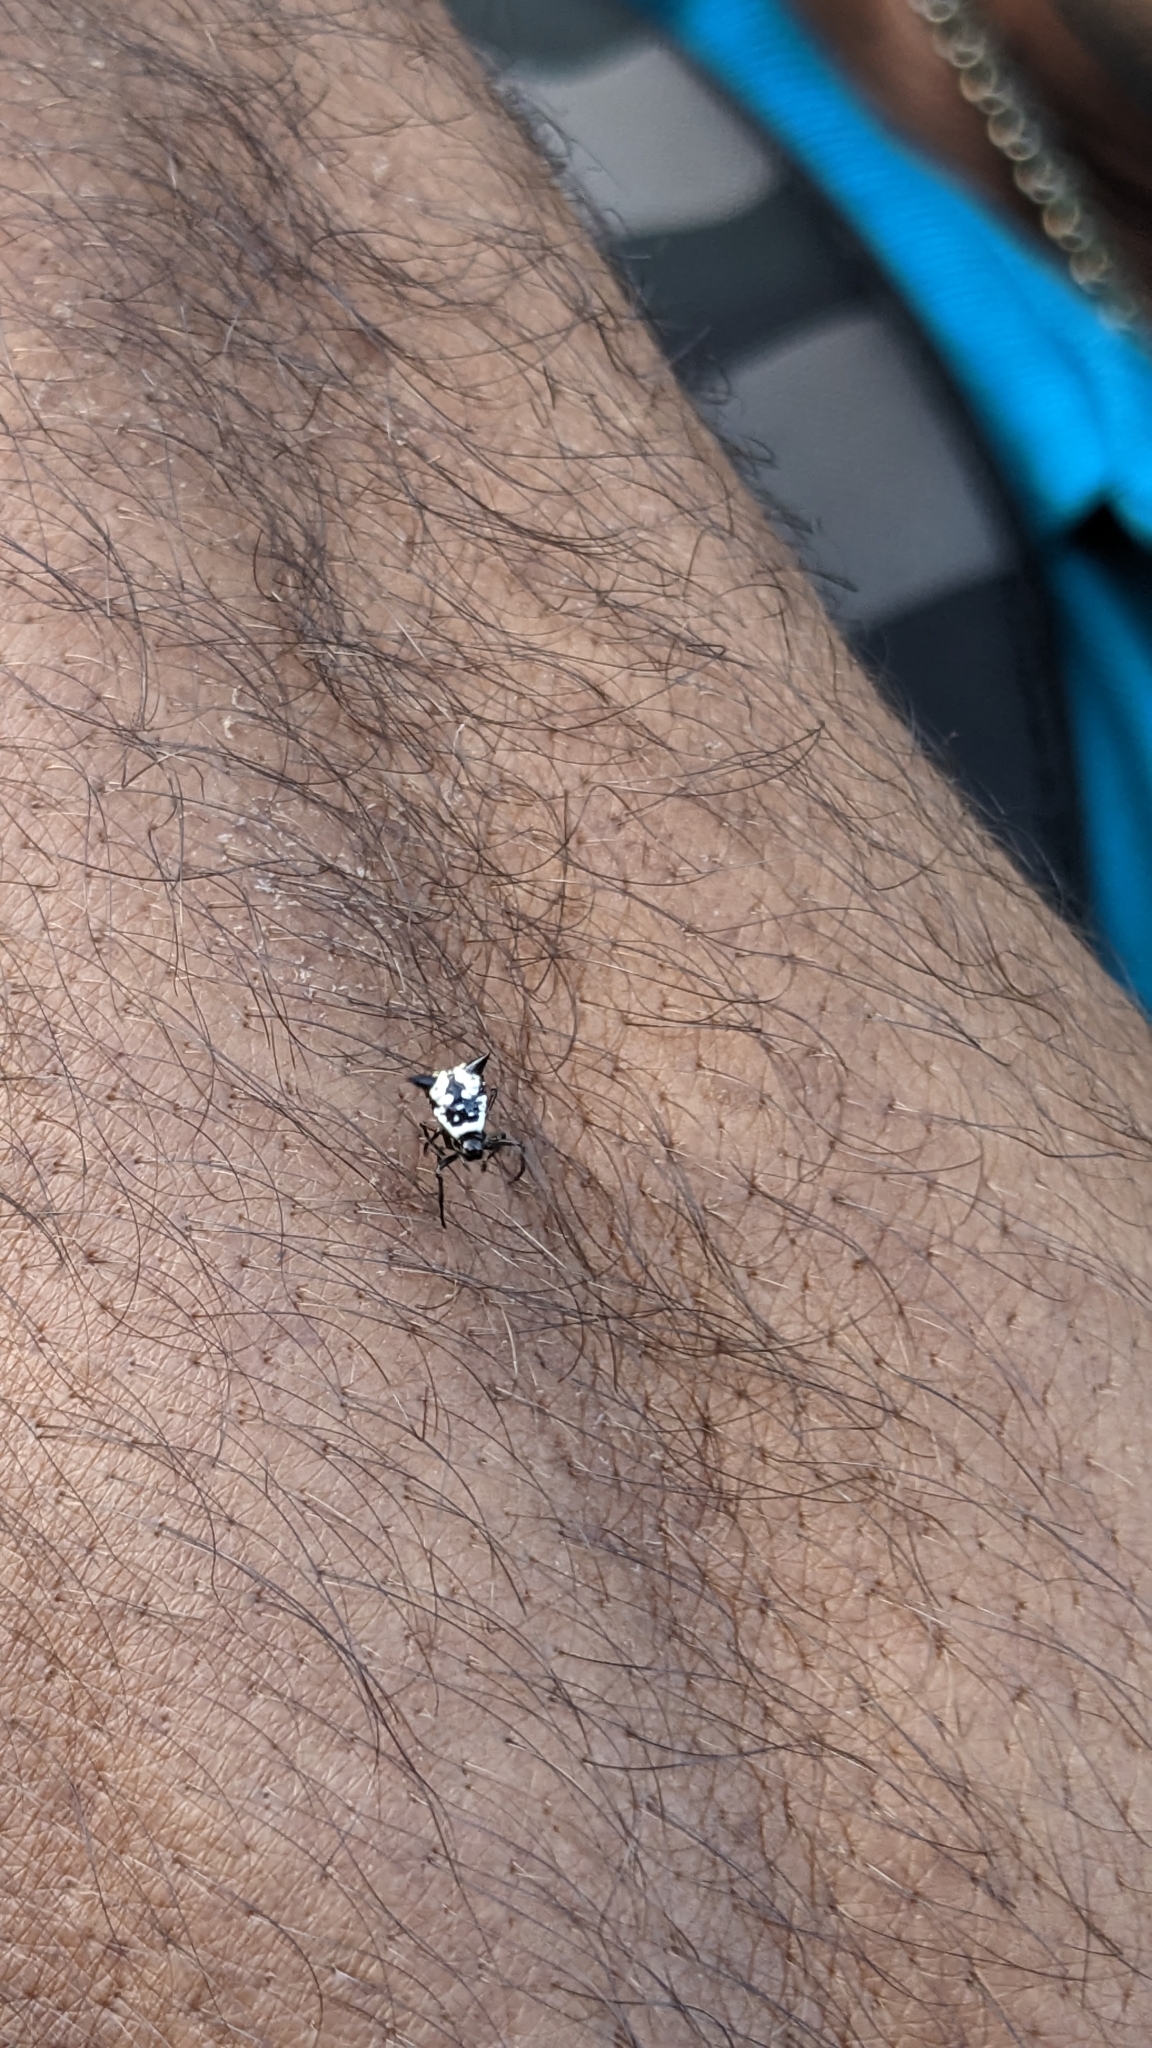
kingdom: Animalia
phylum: Arthropoda
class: Arachnida
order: Araneae
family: Araneidae
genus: Micrathena
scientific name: Micrathena cubana
